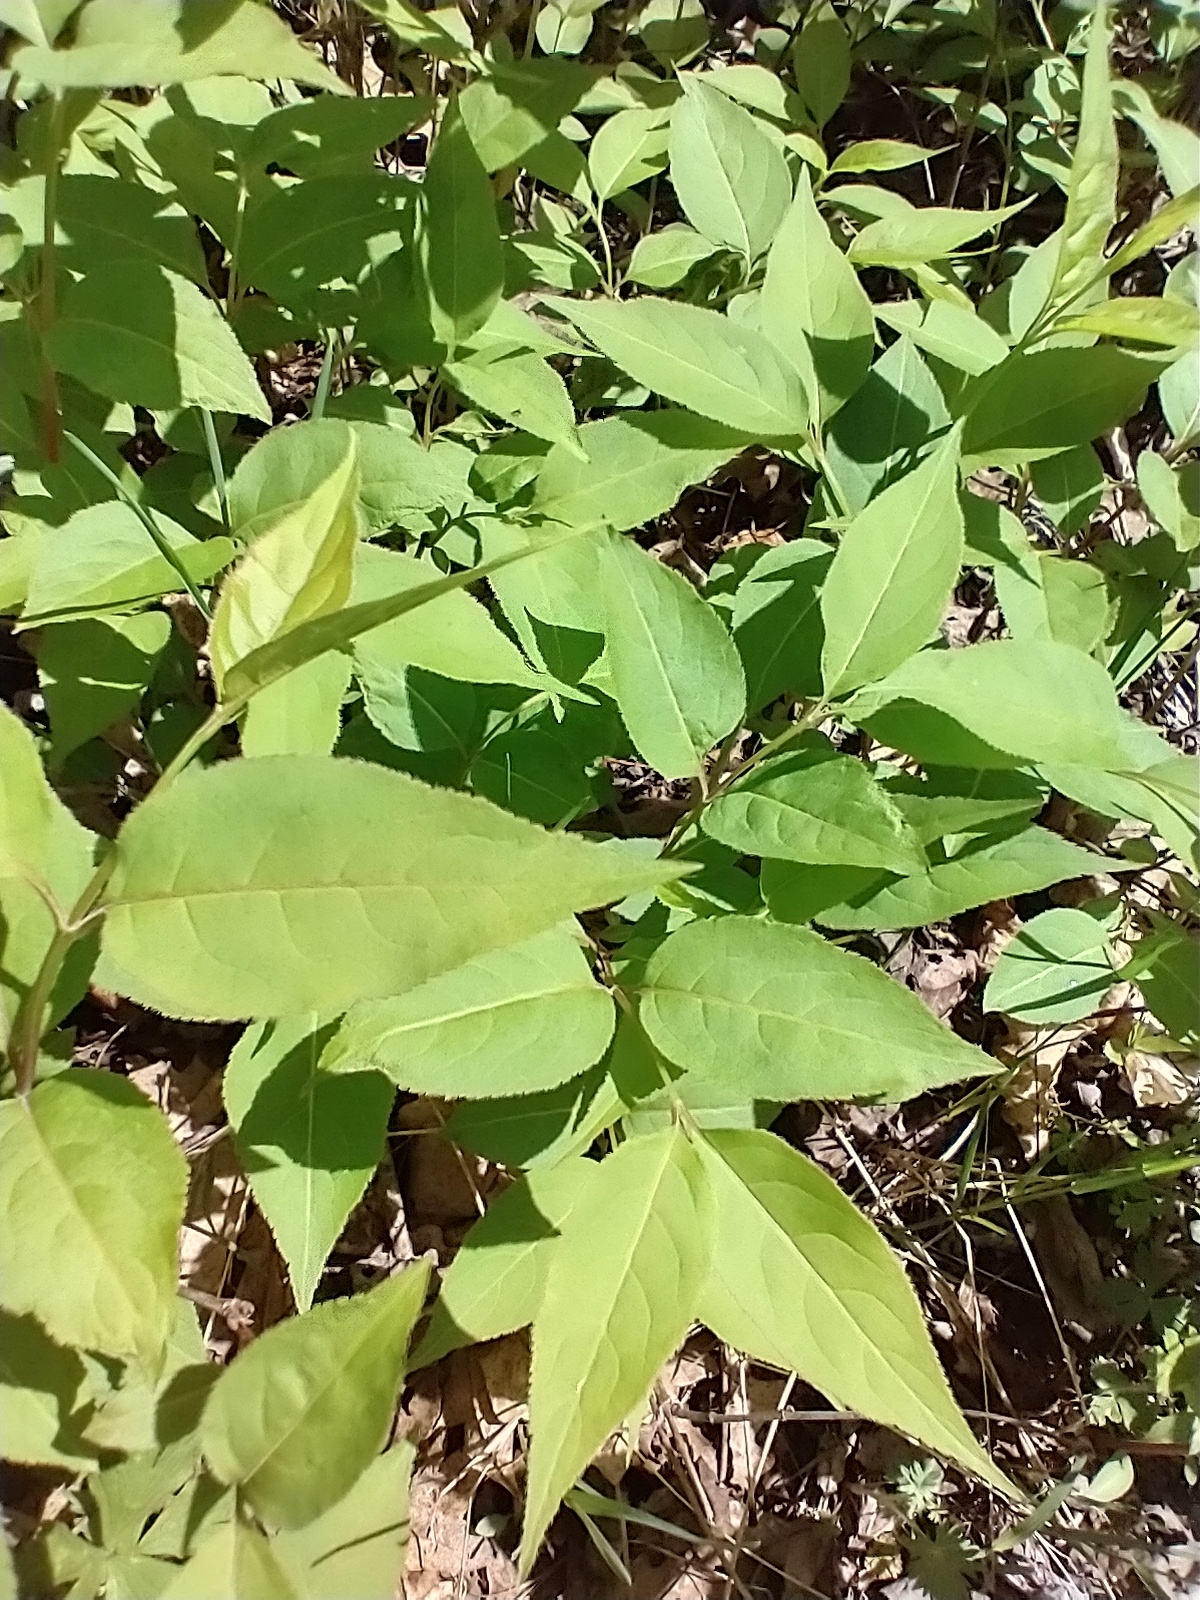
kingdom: Plantae
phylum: Tracheophyta
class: Magnoliopsida
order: Dipsacales
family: Caprifoliaceae
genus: Diervilla
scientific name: Diervilla lonicera
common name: Bush-honeysuckle
